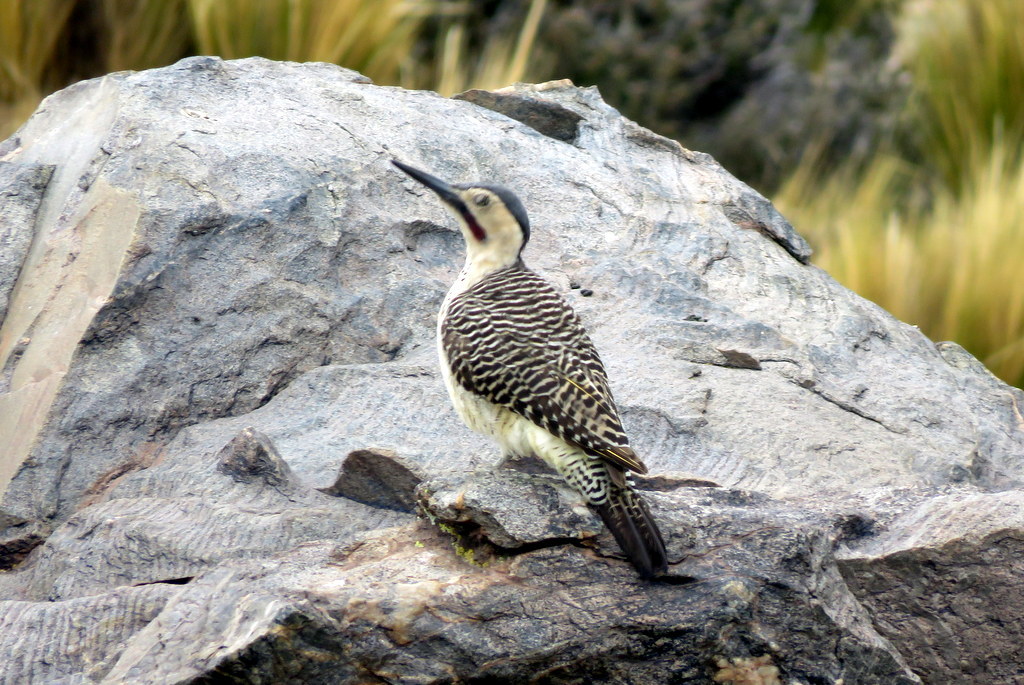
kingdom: Animalia
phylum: Chordata
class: Aves
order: Piciformes
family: Picidae
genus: Colaptes
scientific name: Colaptes rupicola
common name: Andean flicker
